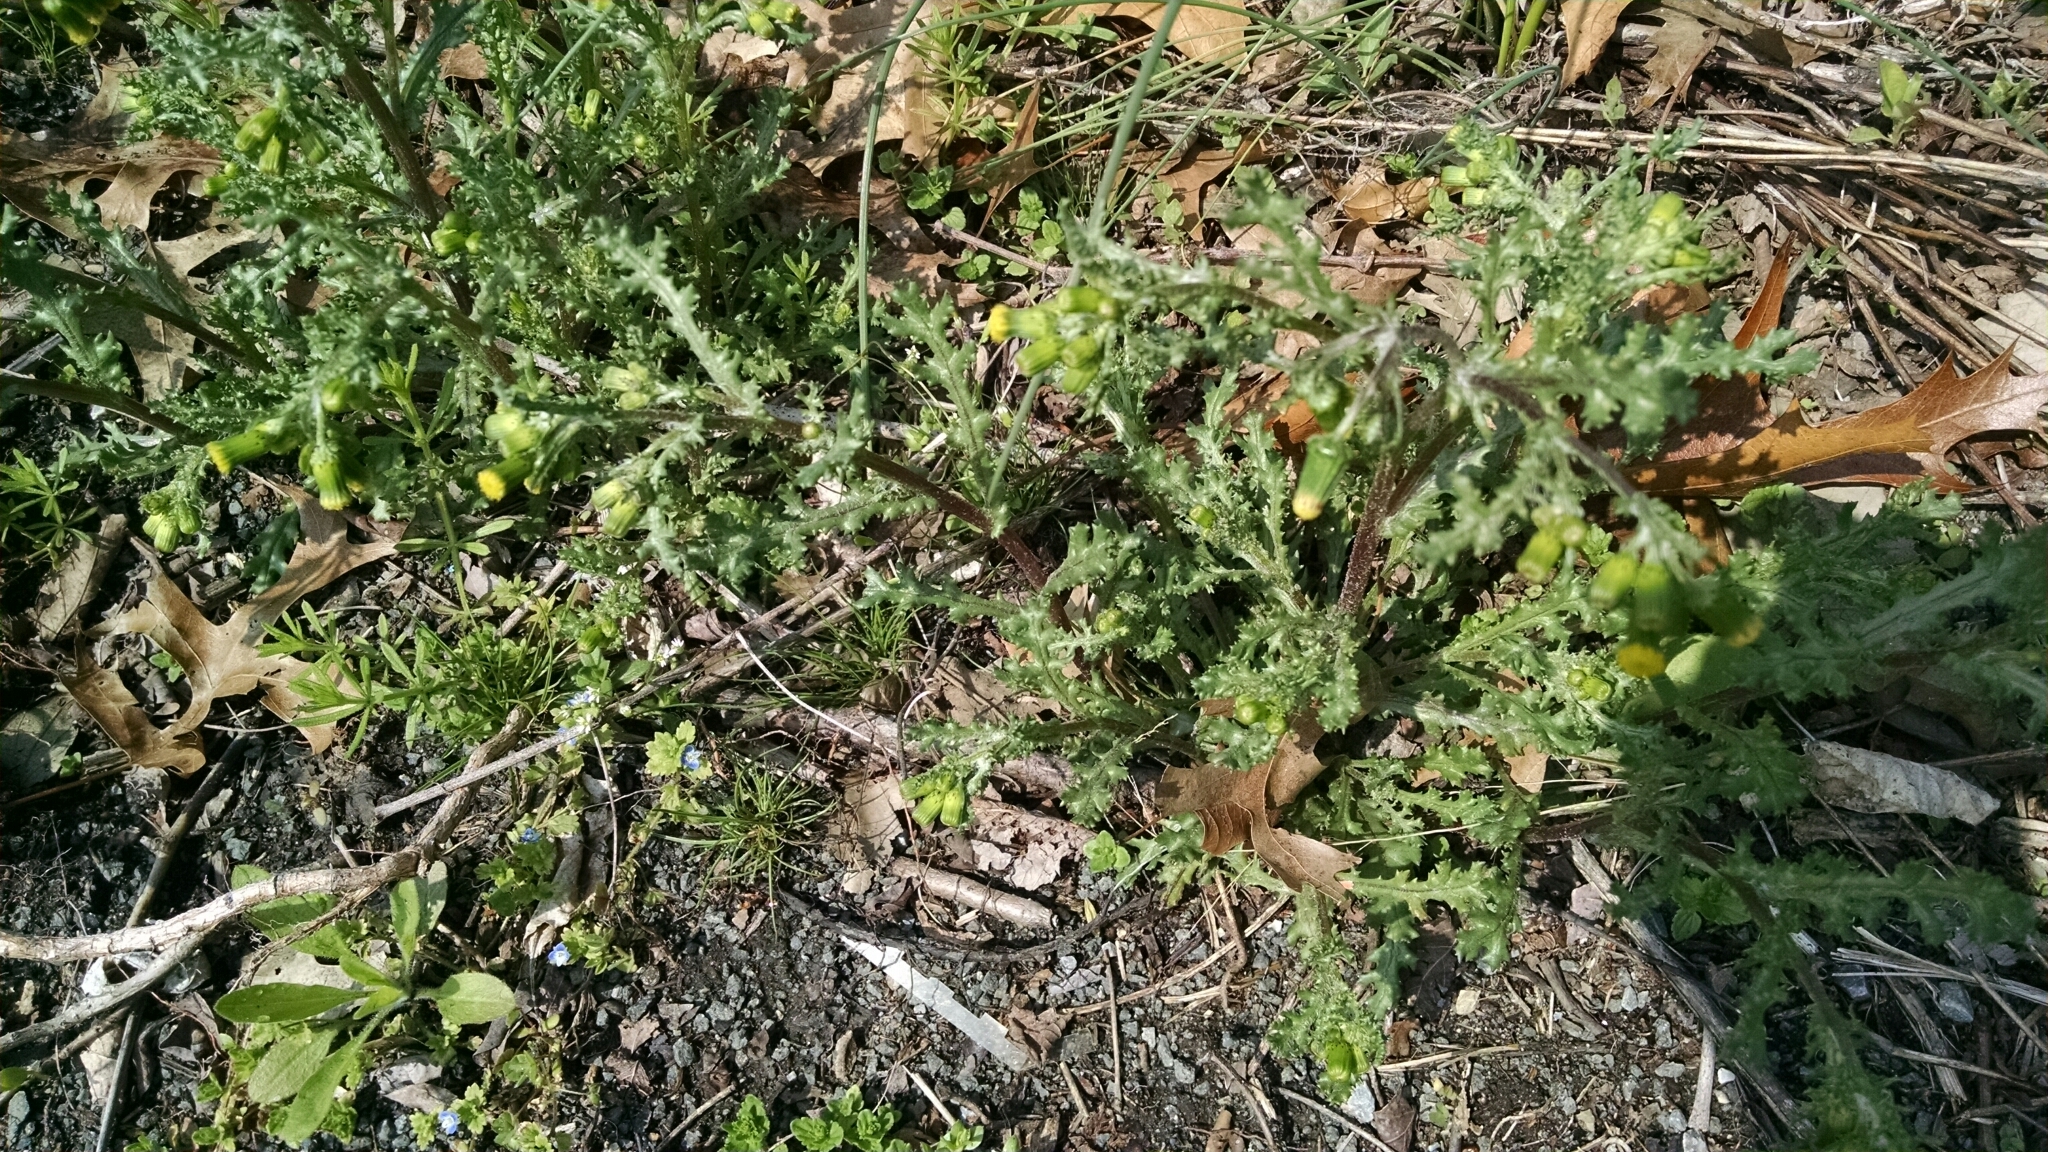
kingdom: Plantae
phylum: Tracheophyta
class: Magnoliopsida
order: Asterales
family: Asteraceae
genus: Senecio
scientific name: Senecio vulgaris
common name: Old-man-in-the-spring
